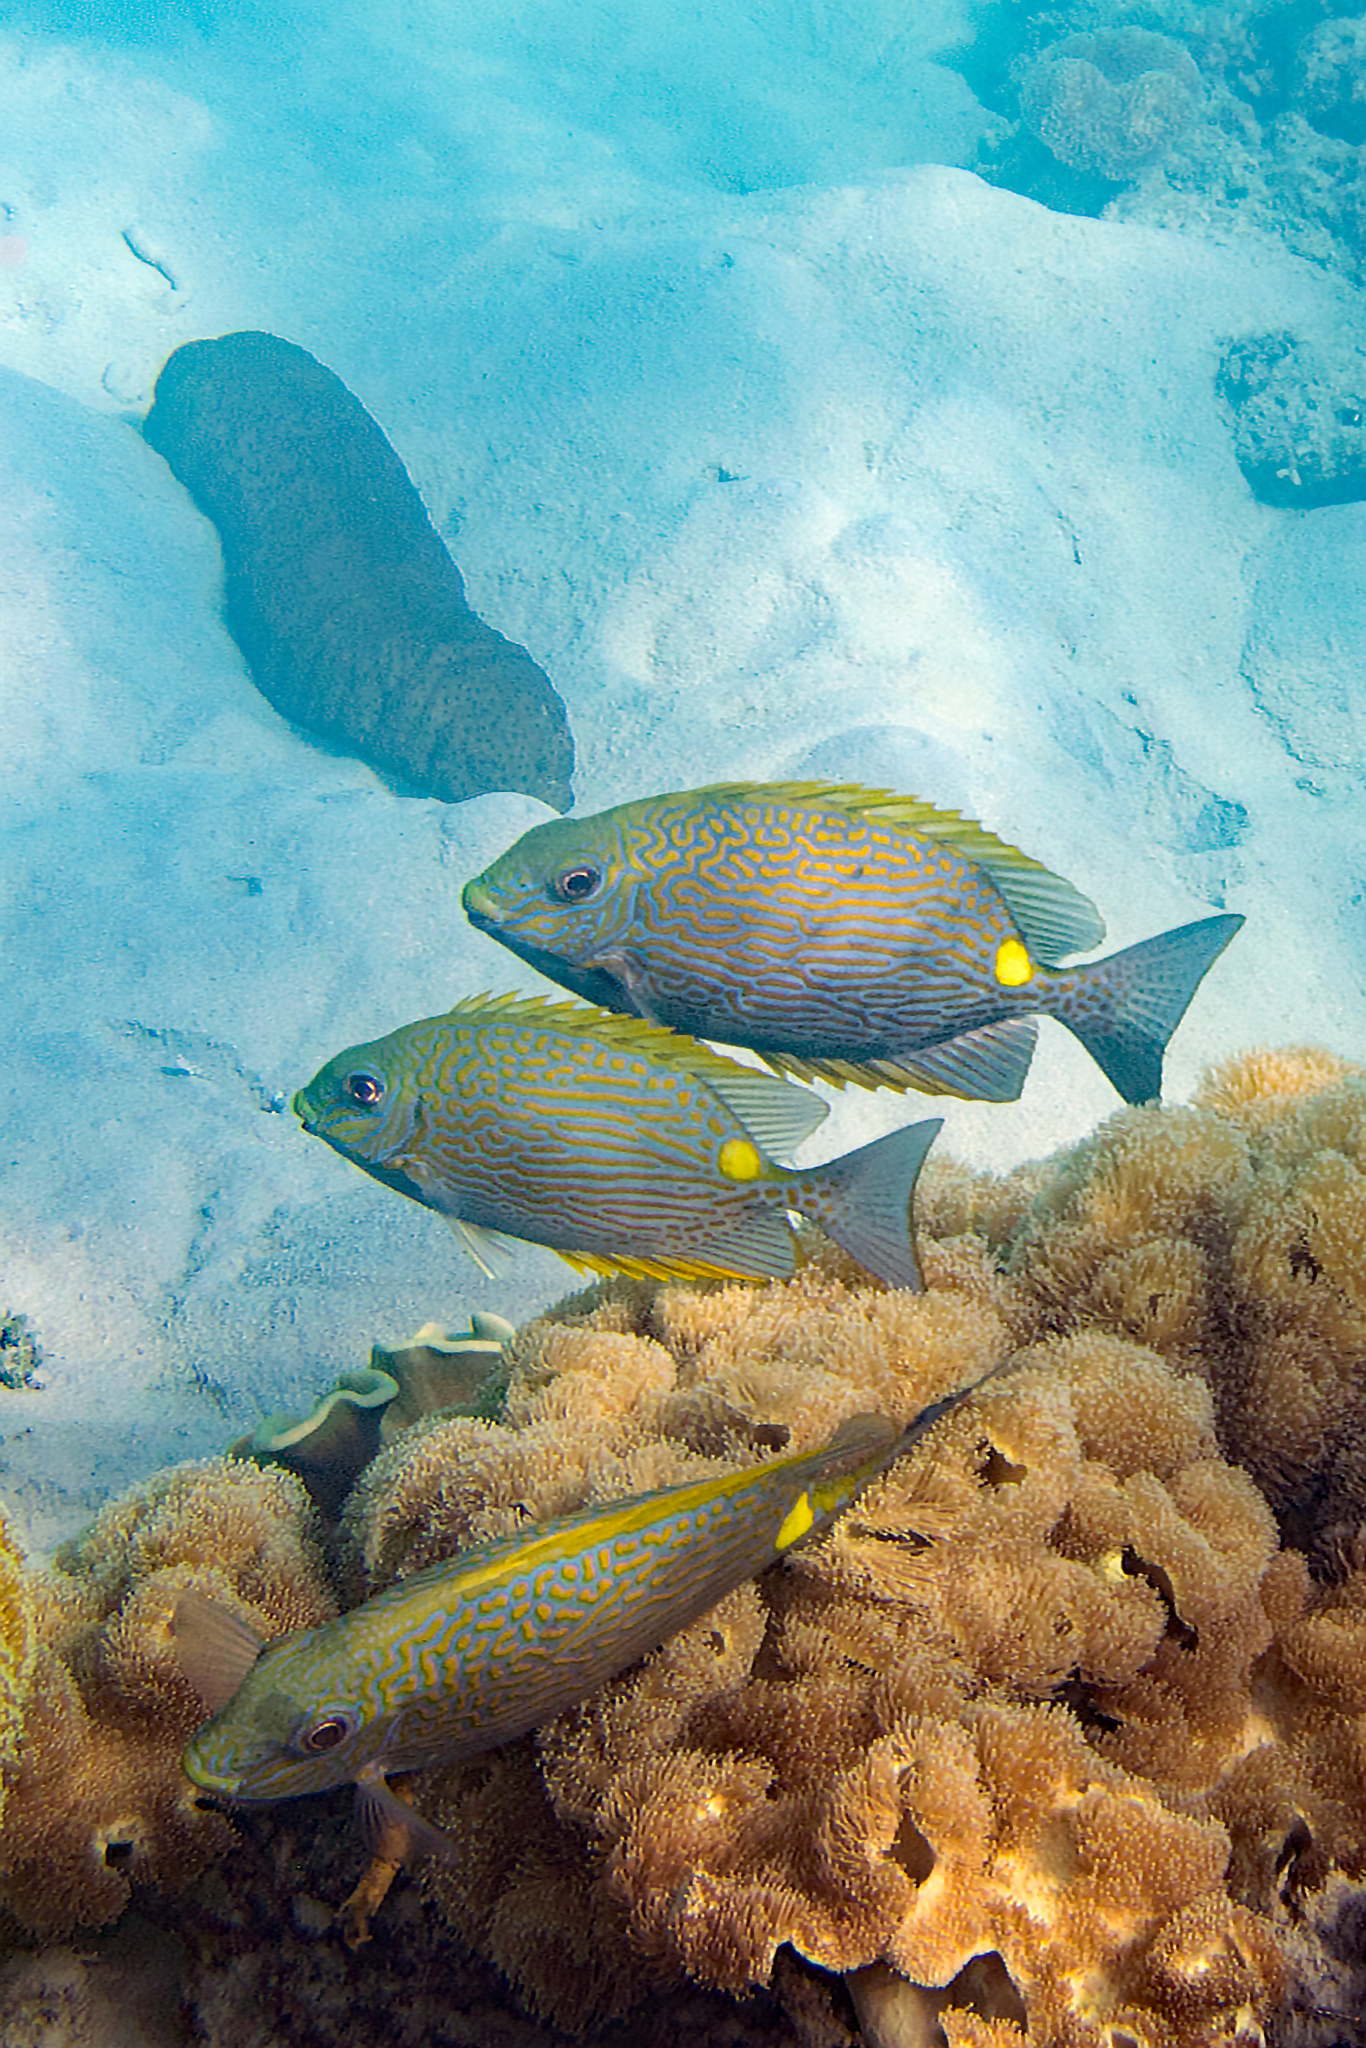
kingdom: Animalia
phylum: Chordata
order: Perciformes
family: Siganidae
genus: Siganus
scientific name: Siganus lineatus
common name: Lined rabbitfish
